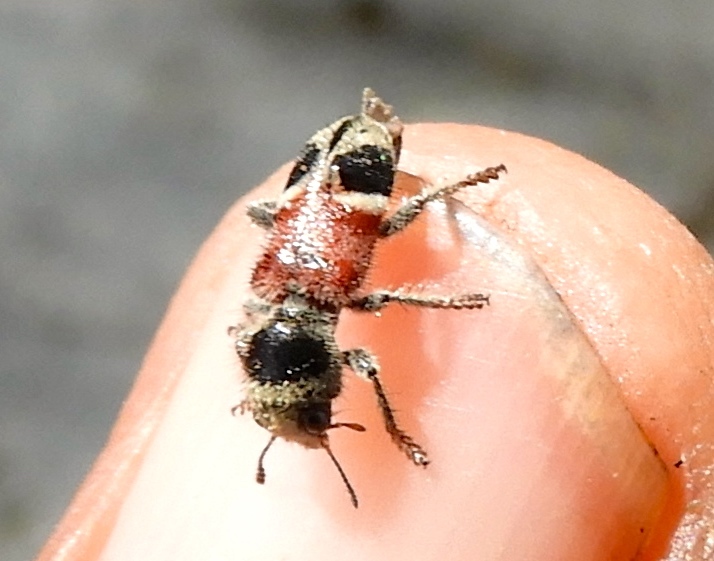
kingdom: Animalia
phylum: Arthropoda
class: Insecta
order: Coleoptera
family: Cleridae
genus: Enoclerus
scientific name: Enoclerus opifex
